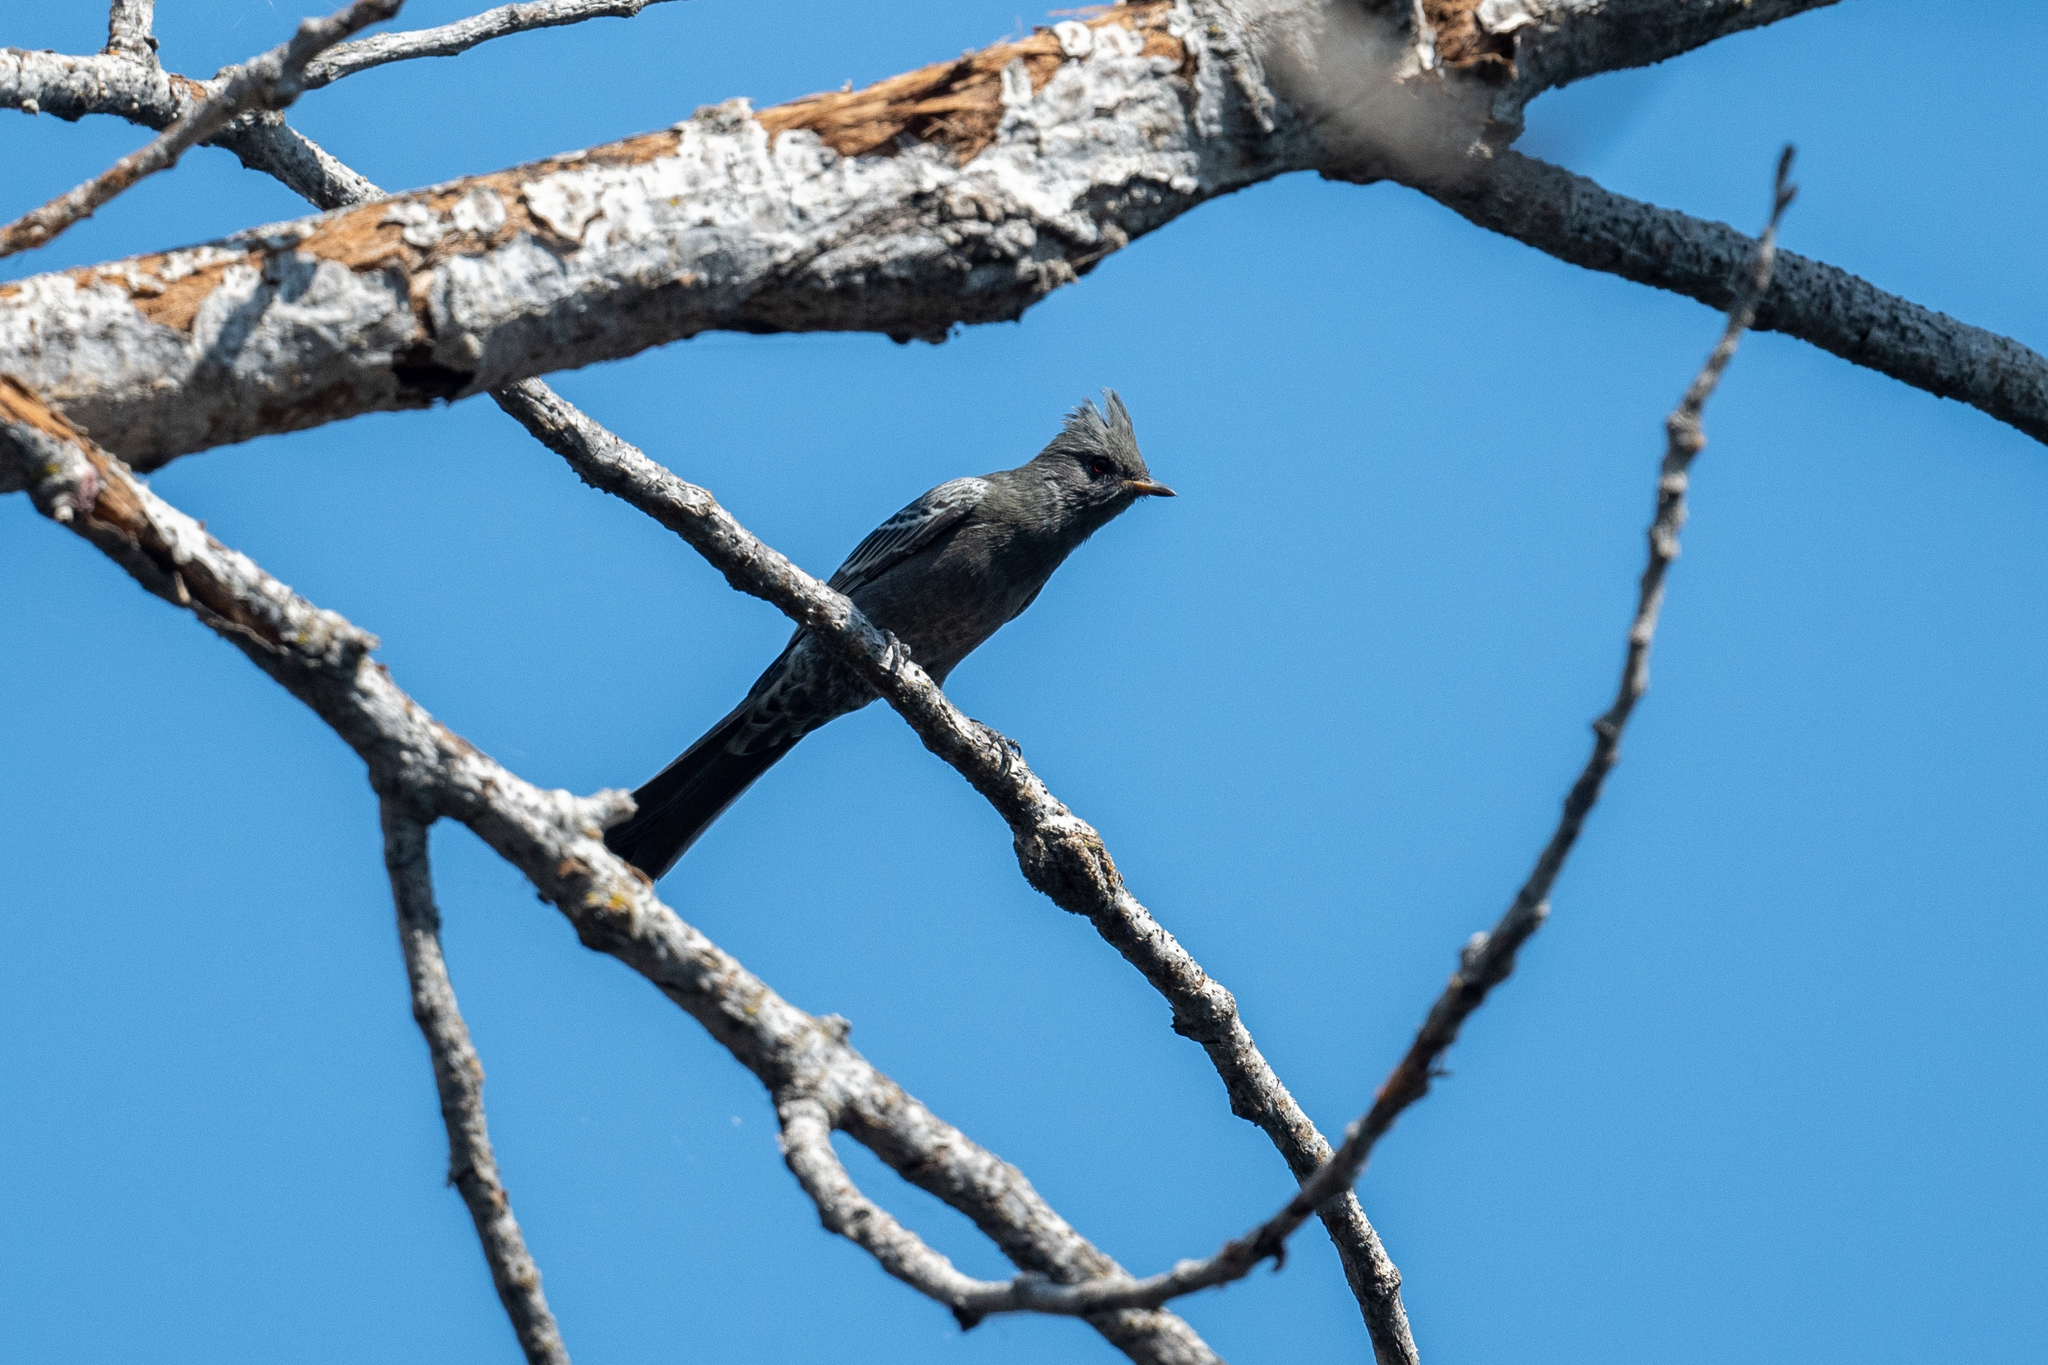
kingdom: Animalia
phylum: Chordata
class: Aves
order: Passeriformes
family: Ptilogonatidae
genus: Phainopepla
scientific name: Phainopepla nitens
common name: Phainopepla
